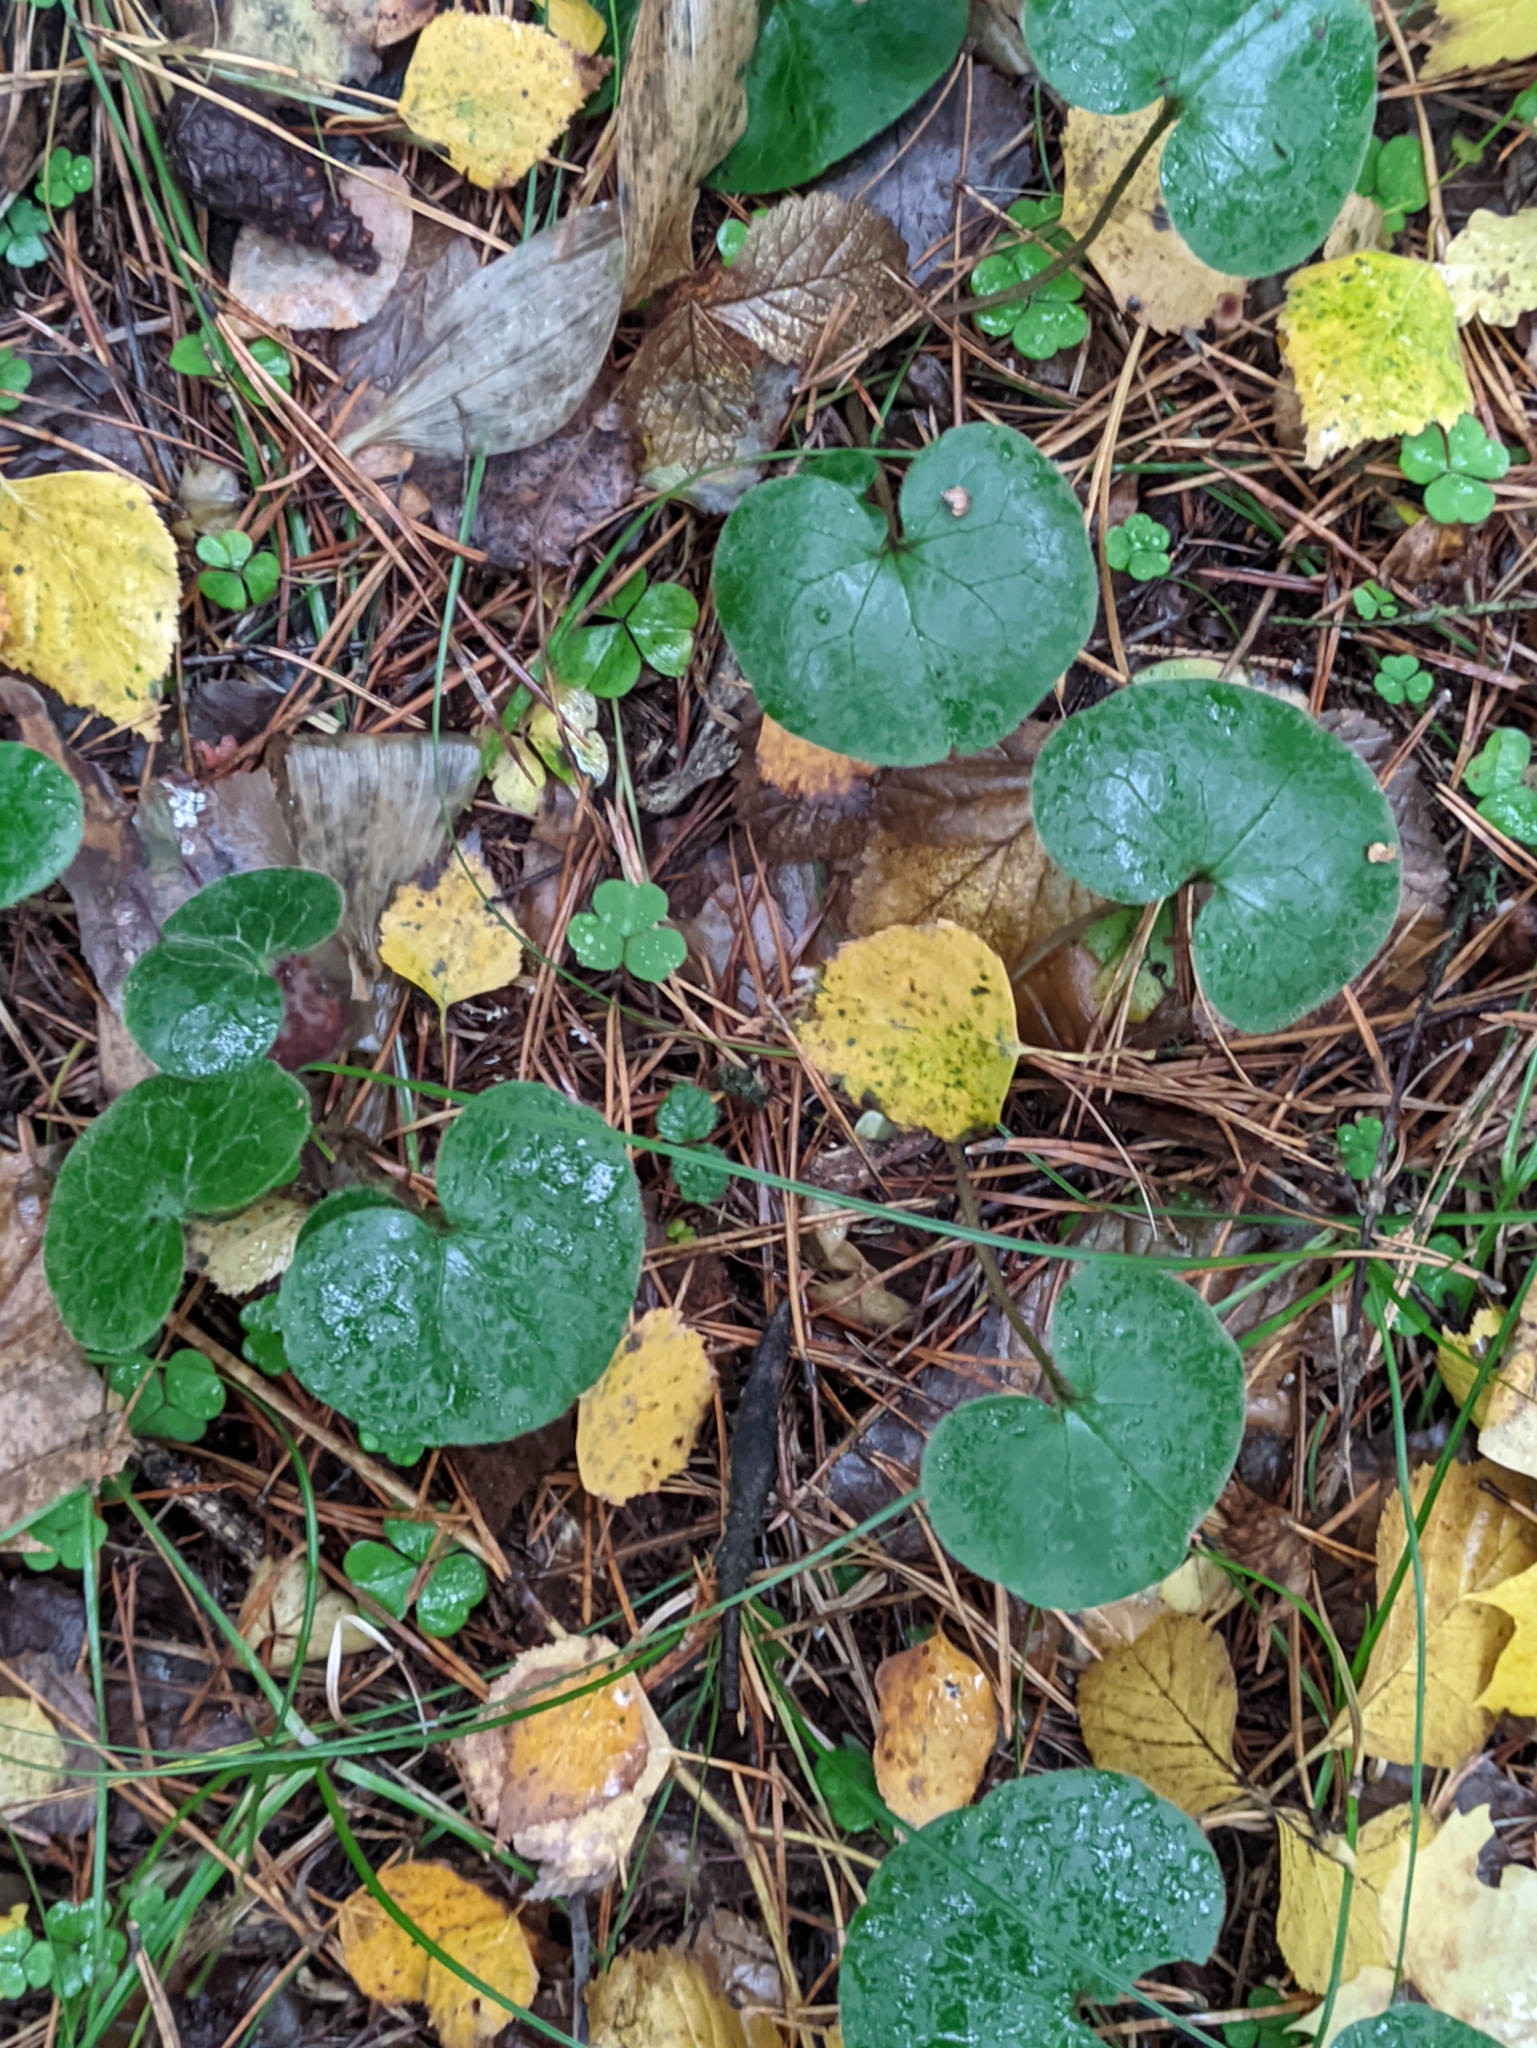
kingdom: Plantae
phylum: Tracheophyta
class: Magnoliopsida
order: Piperales
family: Aristolochiaceae
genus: Asarum
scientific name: Asarum europaeum
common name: Asarabacca
